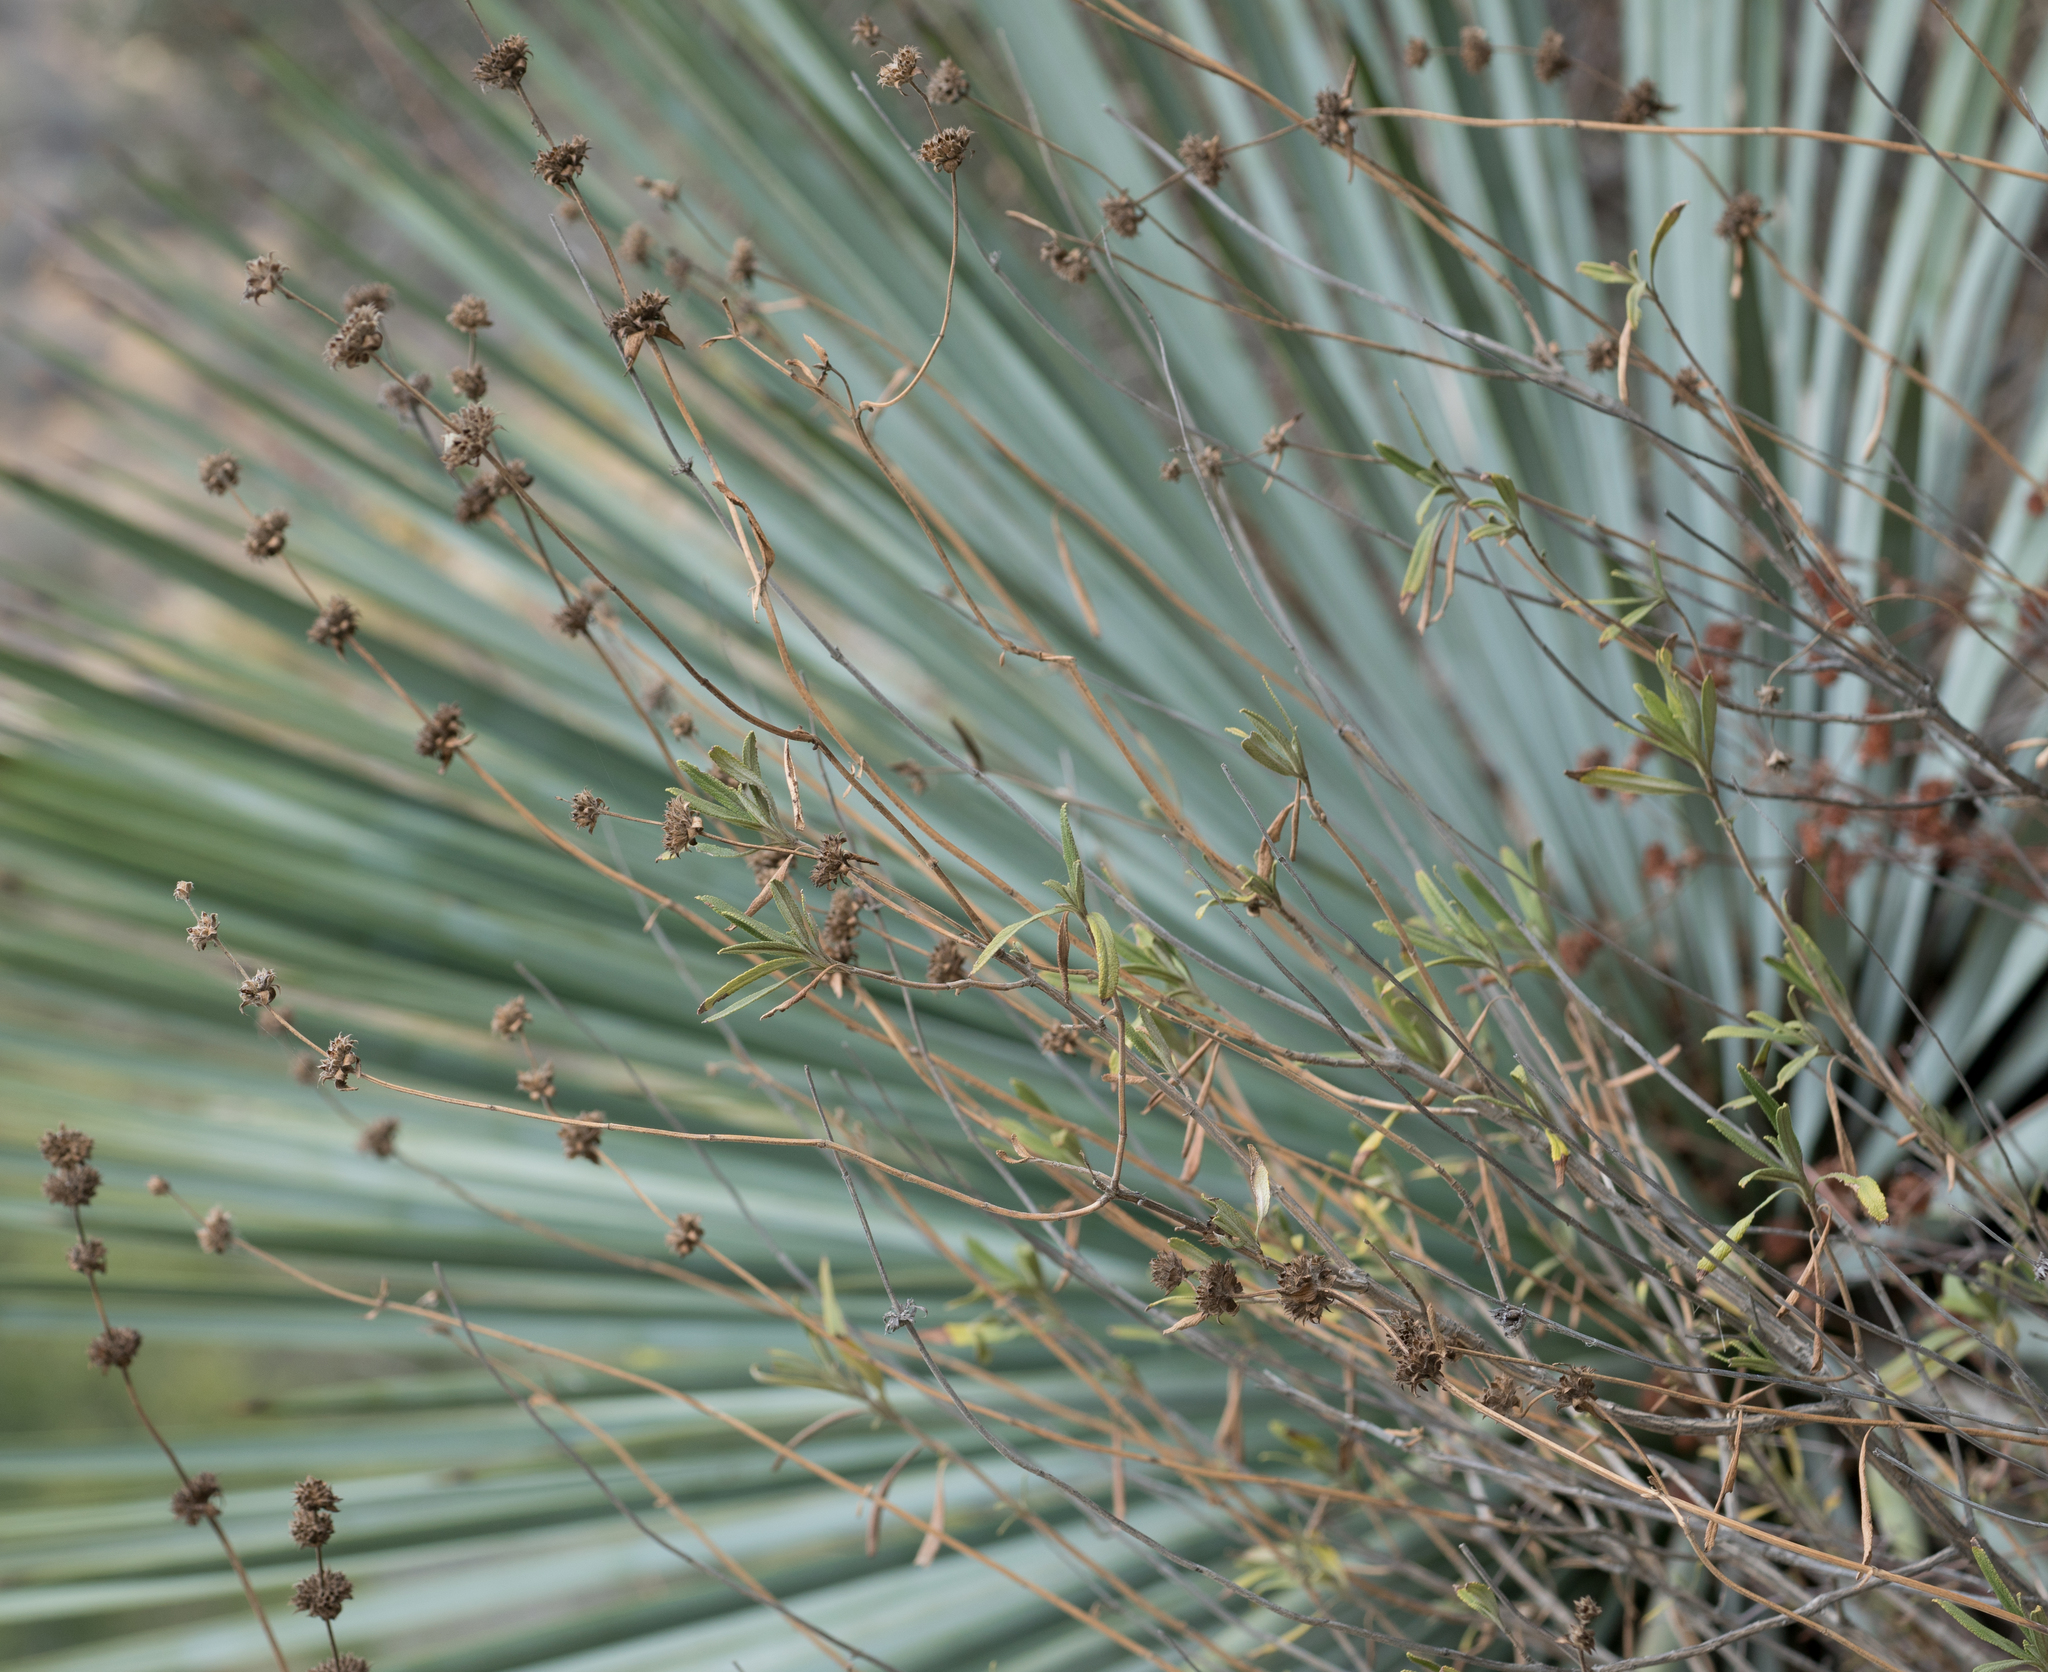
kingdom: Plantae
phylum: Tracheophyta
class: Magnoliopsida
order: Lamiales
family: Lamiaceae
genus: Salvia
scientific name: Salvia mellifera
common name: Black sage
